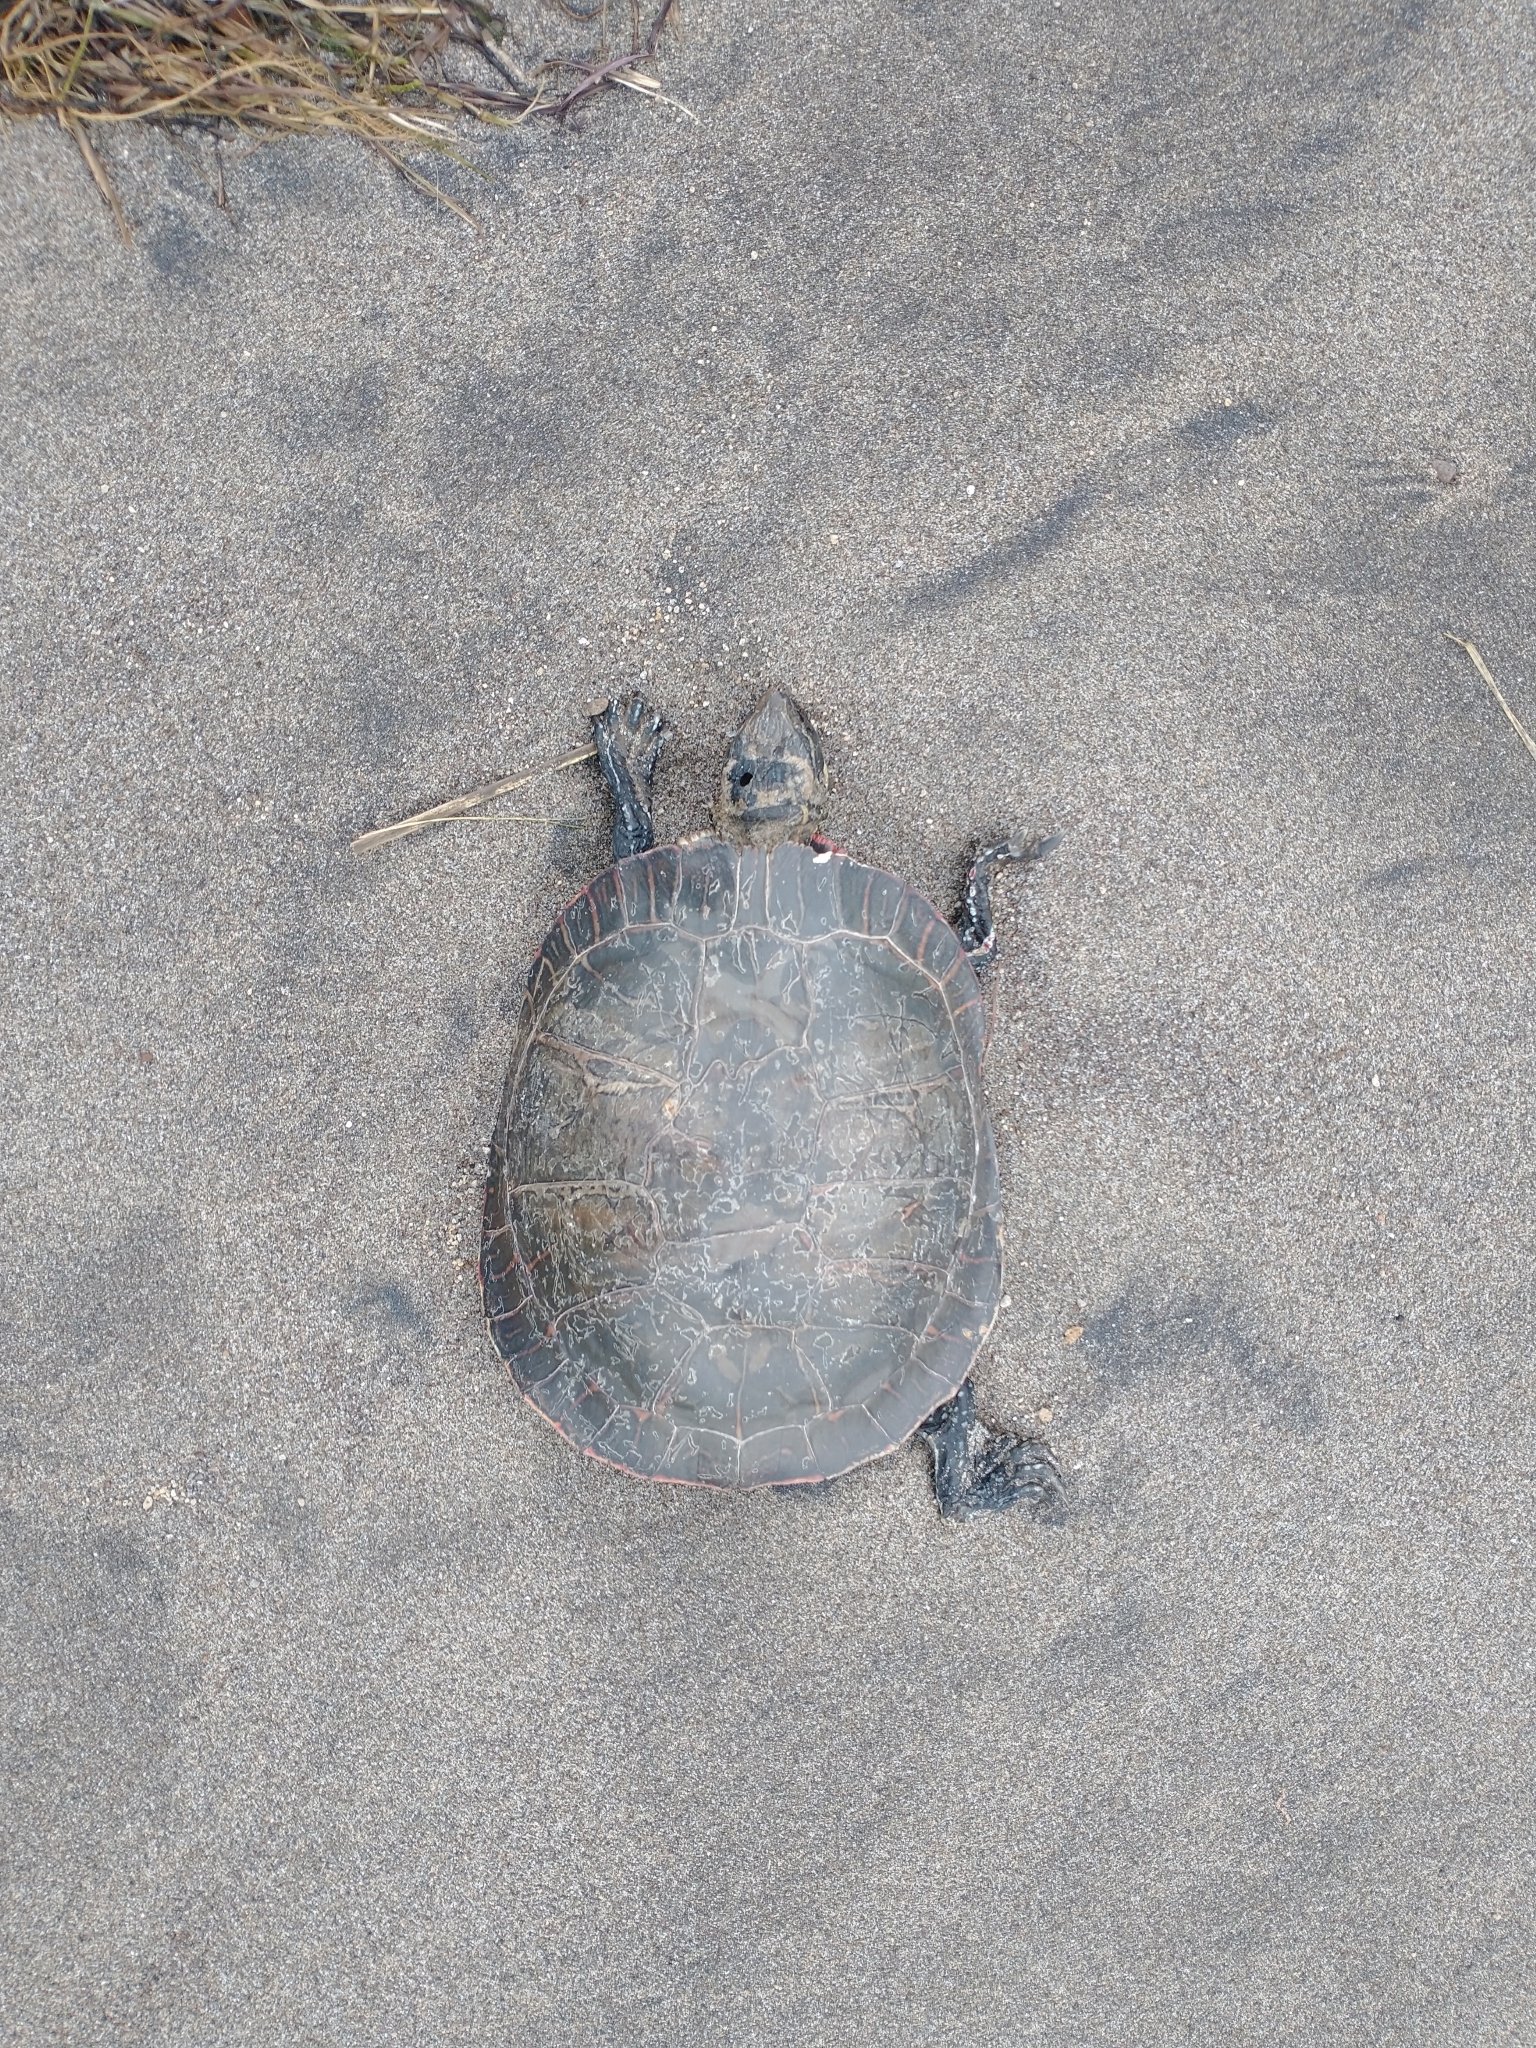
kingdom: Animalia
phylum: Chordata
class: Testudines
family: Emydidae
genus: Chrysemys
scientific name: Chrysemys picta
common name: Painted turtle
